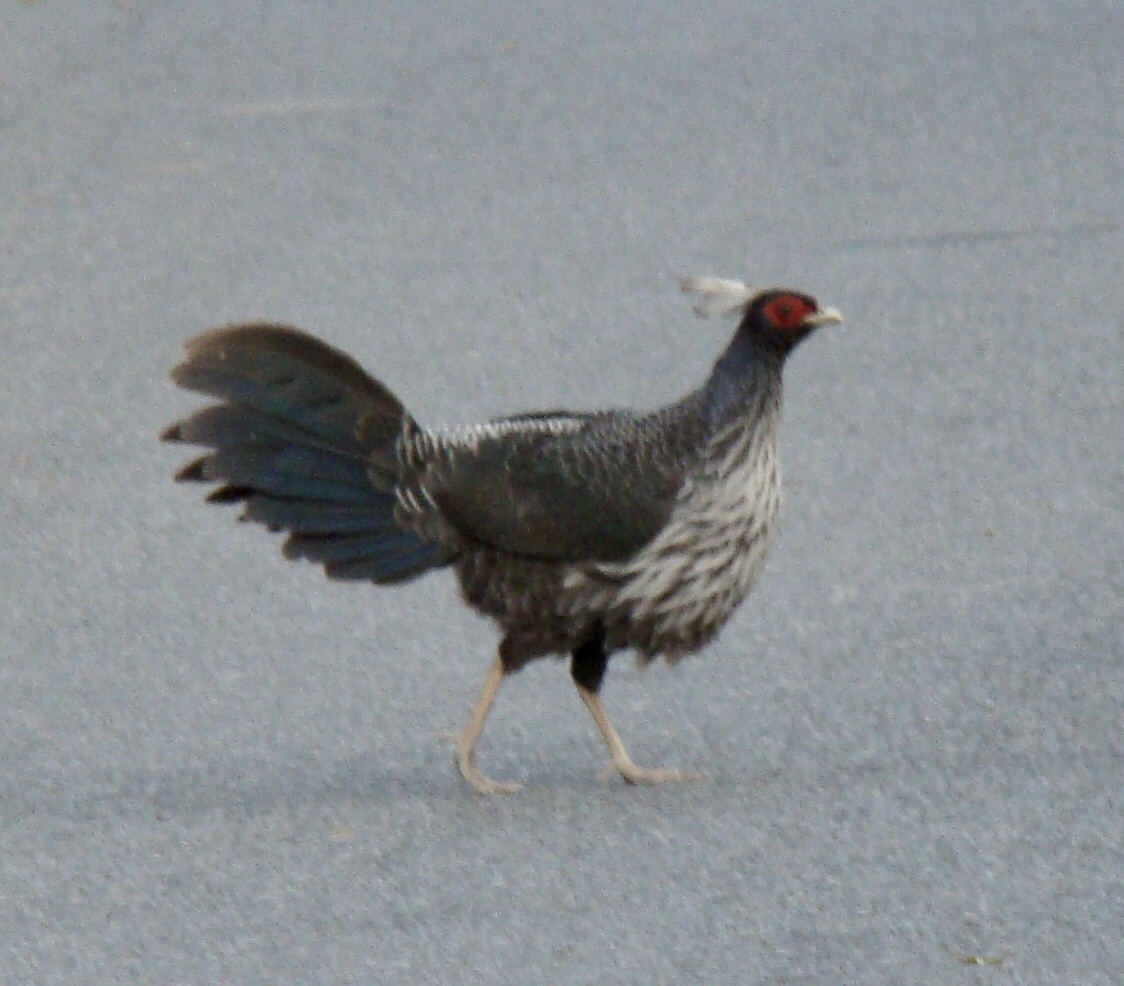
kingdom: Animalia
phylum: Chordata
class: Aves
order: Galliformes
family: Phasianidae
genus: Lophura
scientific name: Lophura leucomelanos
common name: Kalij pheasant
